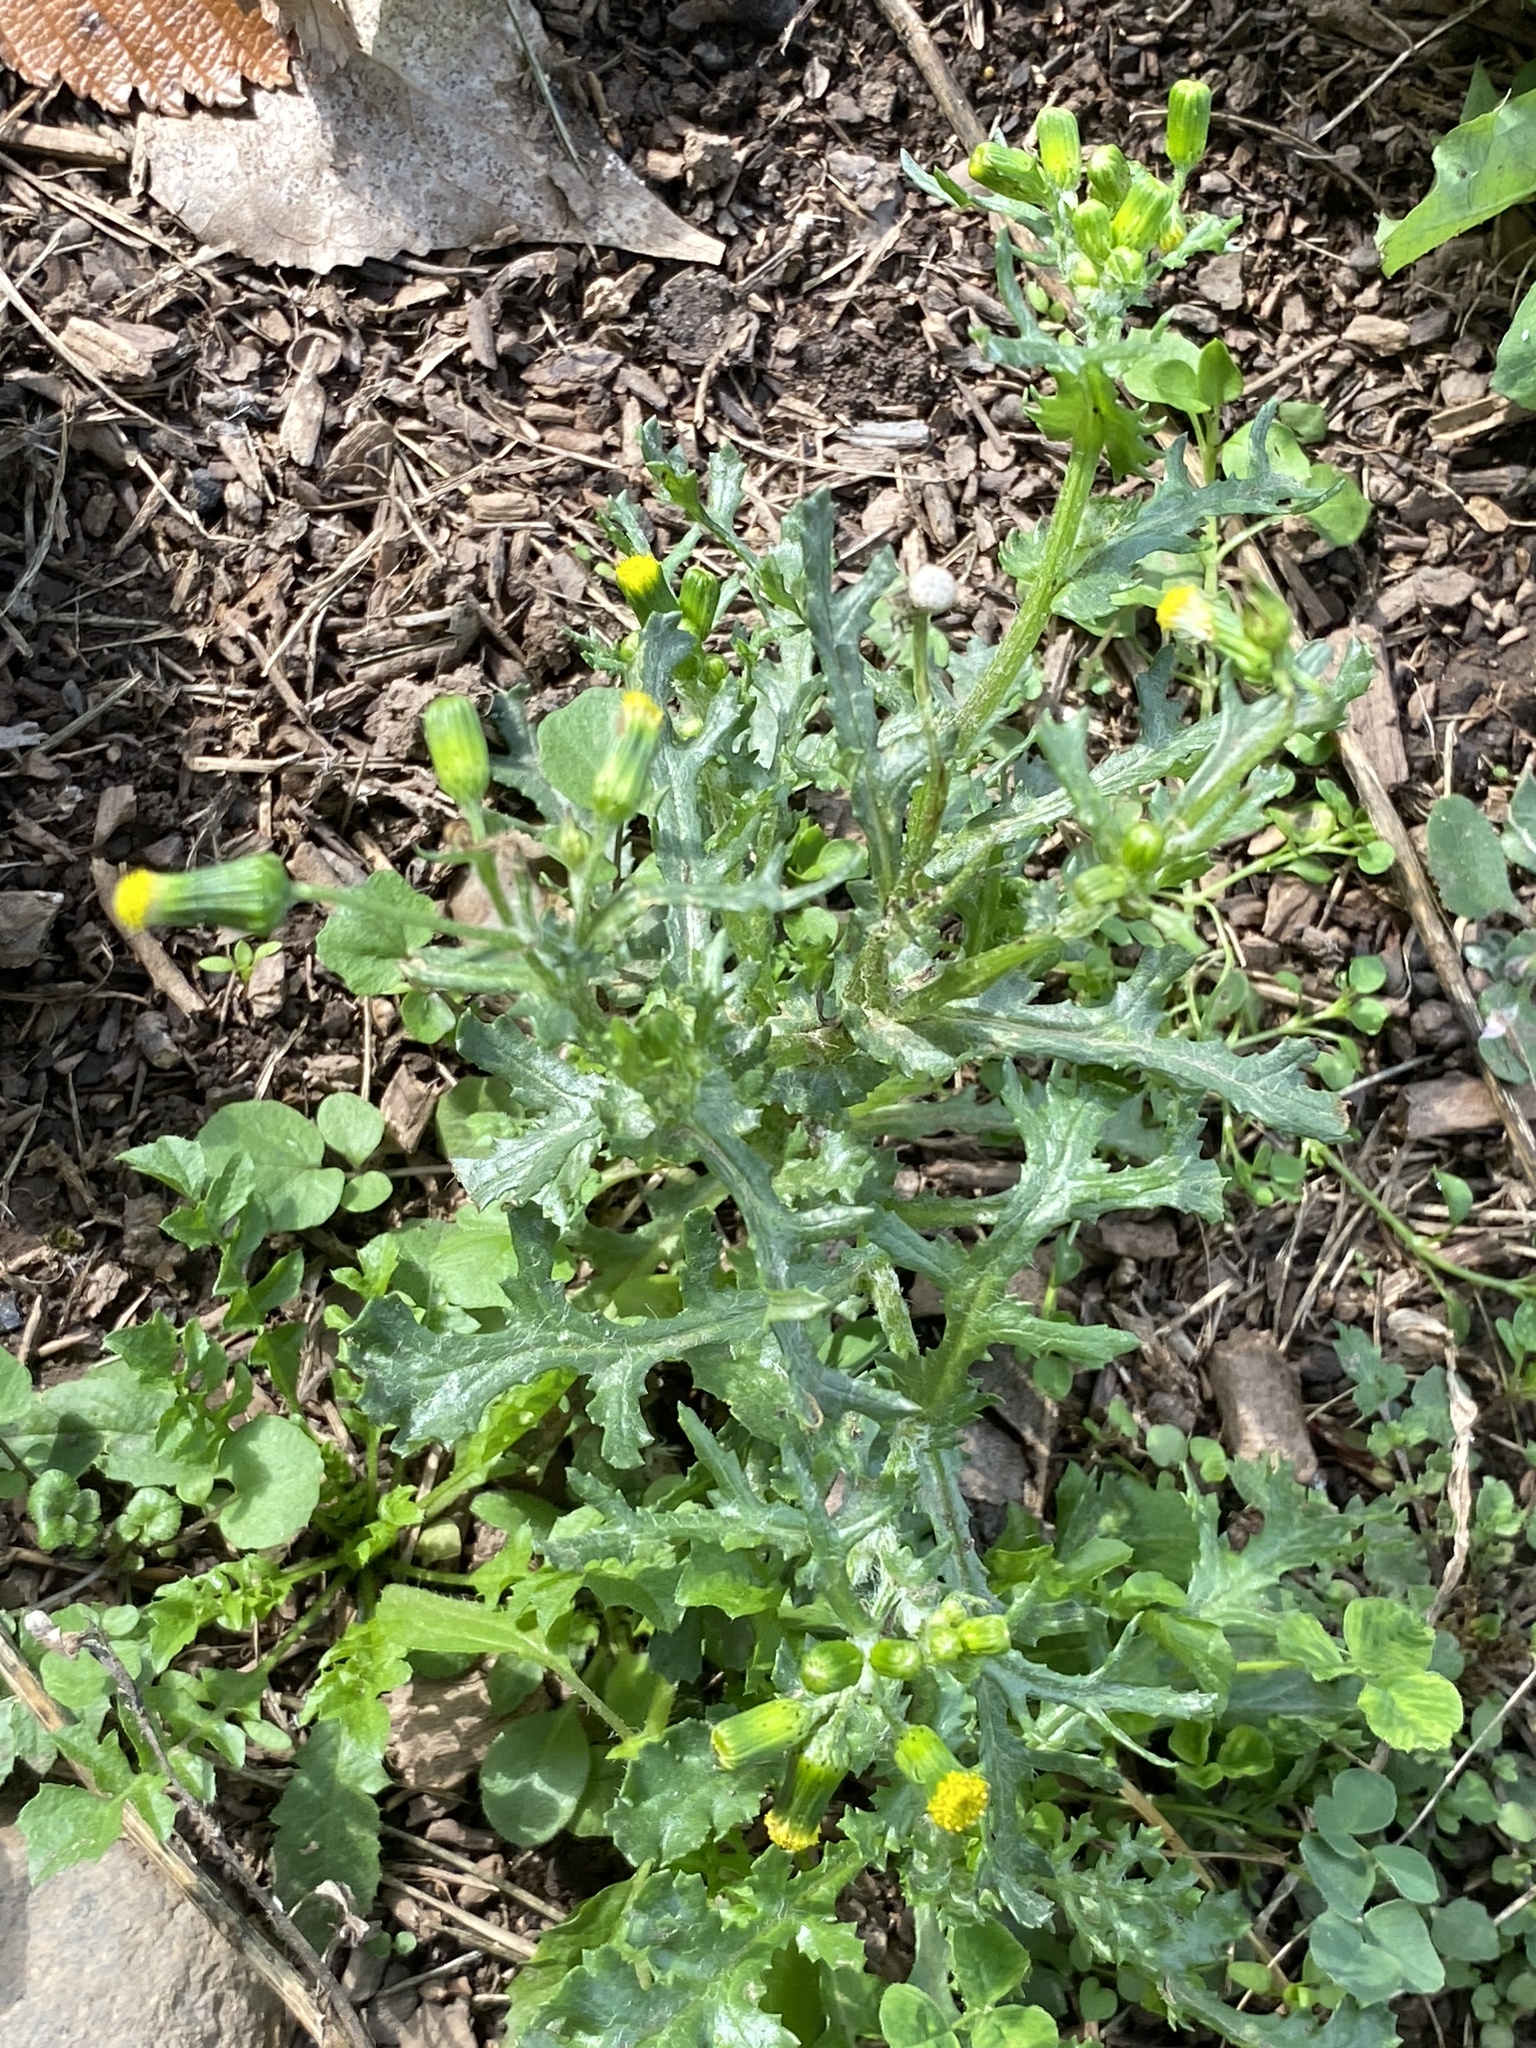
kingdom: Plantae
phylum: Tracheophyta
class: Magnoliopsida
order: Asterales
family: Asteraceae
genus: Senecio
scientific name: Senecio vulgaris
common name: Old-man-in-the-spring
